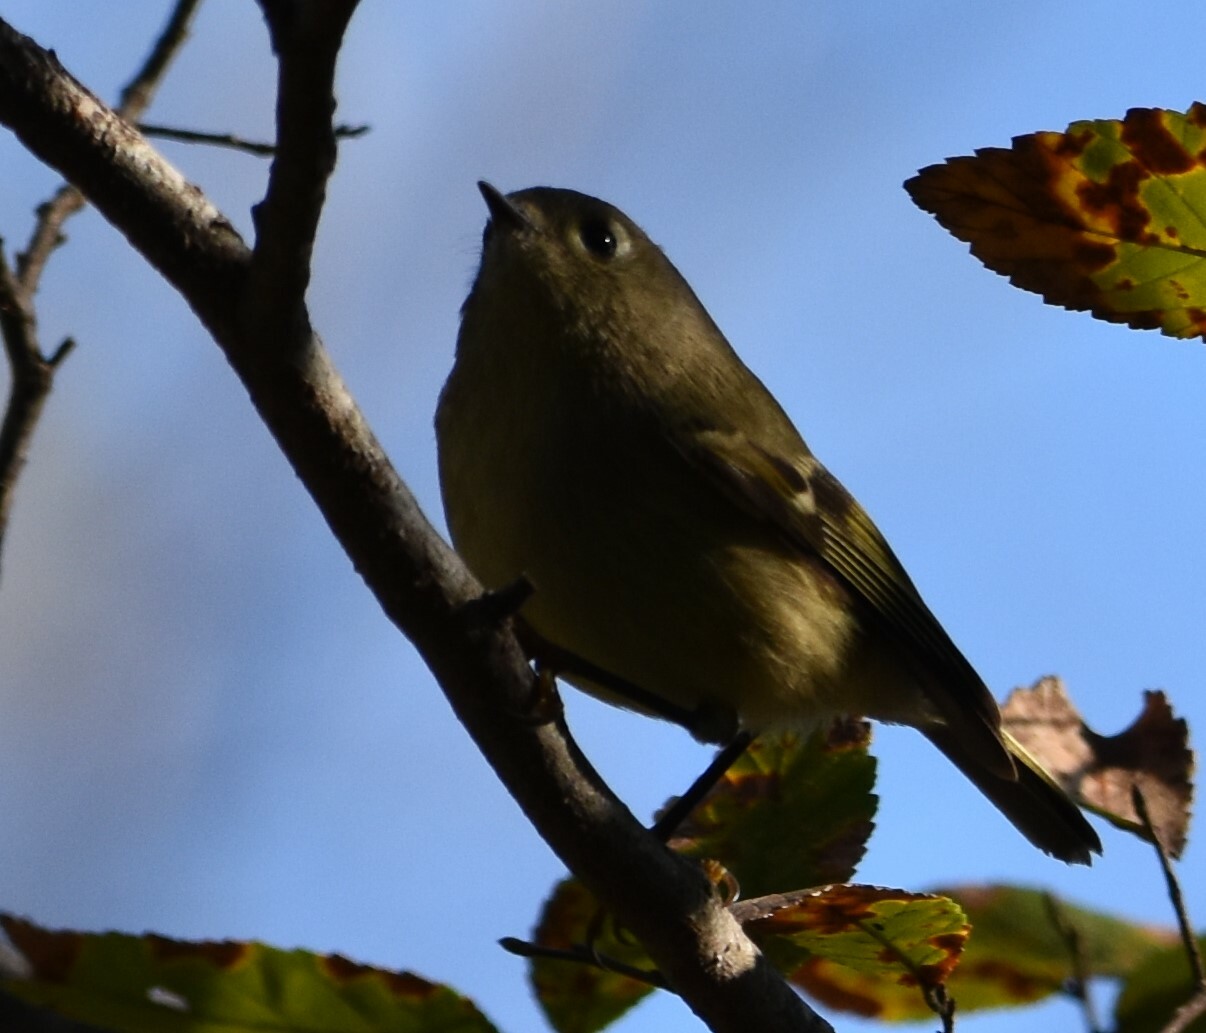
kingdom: Animalia
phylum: Chordata
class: Aves
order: Passeriformes
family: Regulidae
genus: Regulus
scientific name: Regulus calendula
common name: Ruby-crowned kinglet
